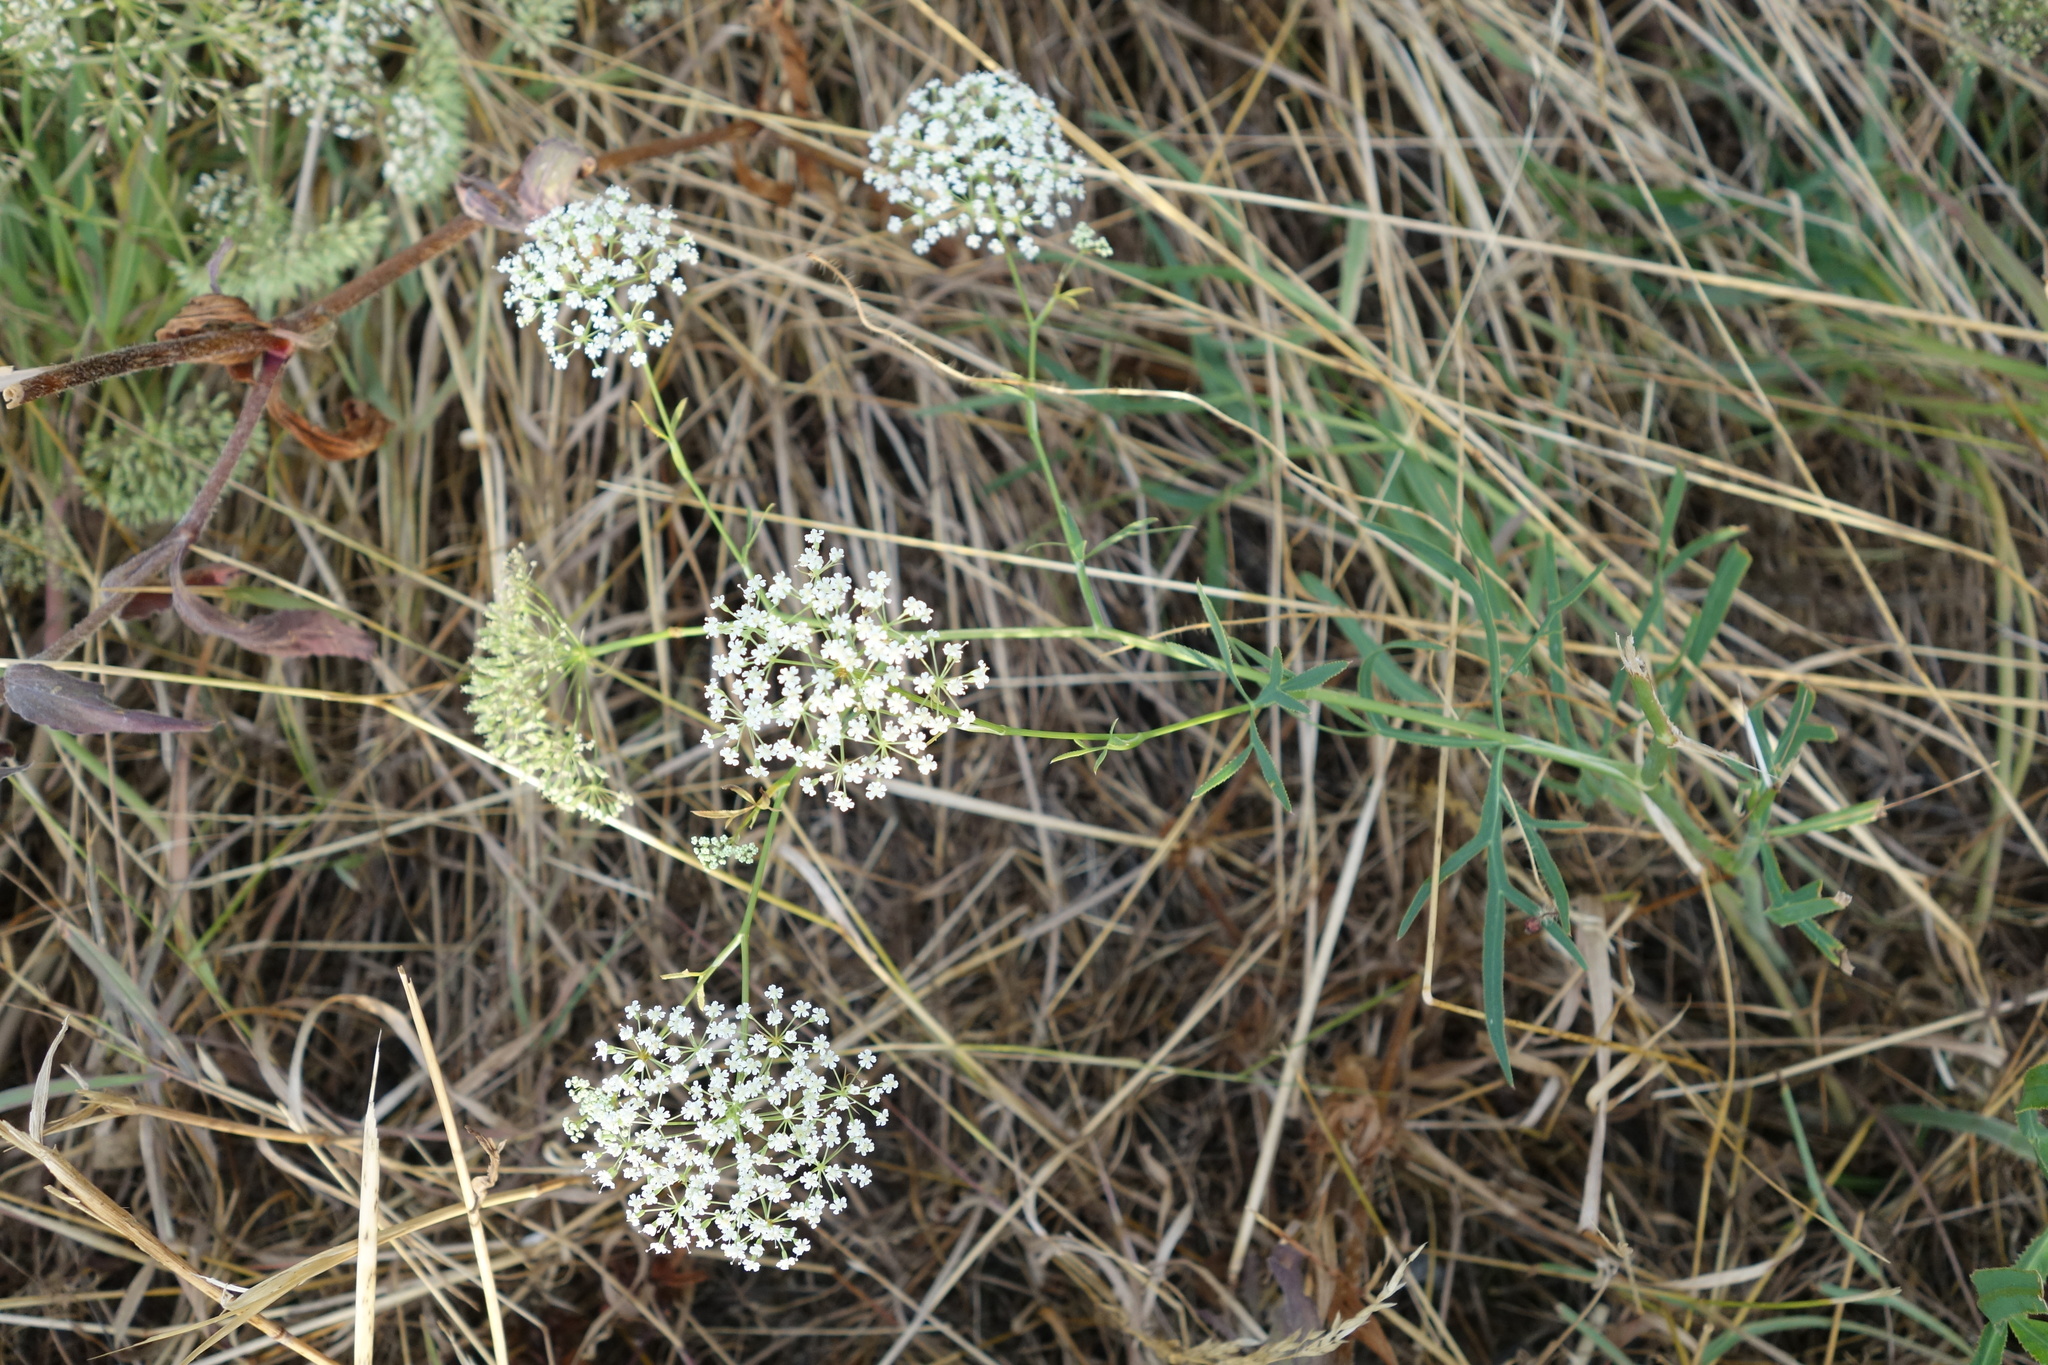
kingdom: Plantae
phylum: Tracheophyta
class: Magnoliopsida
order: Apiales
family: Apiaceae
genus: Falcaria
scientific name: Falcaria vulgaris
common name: Longleaf
